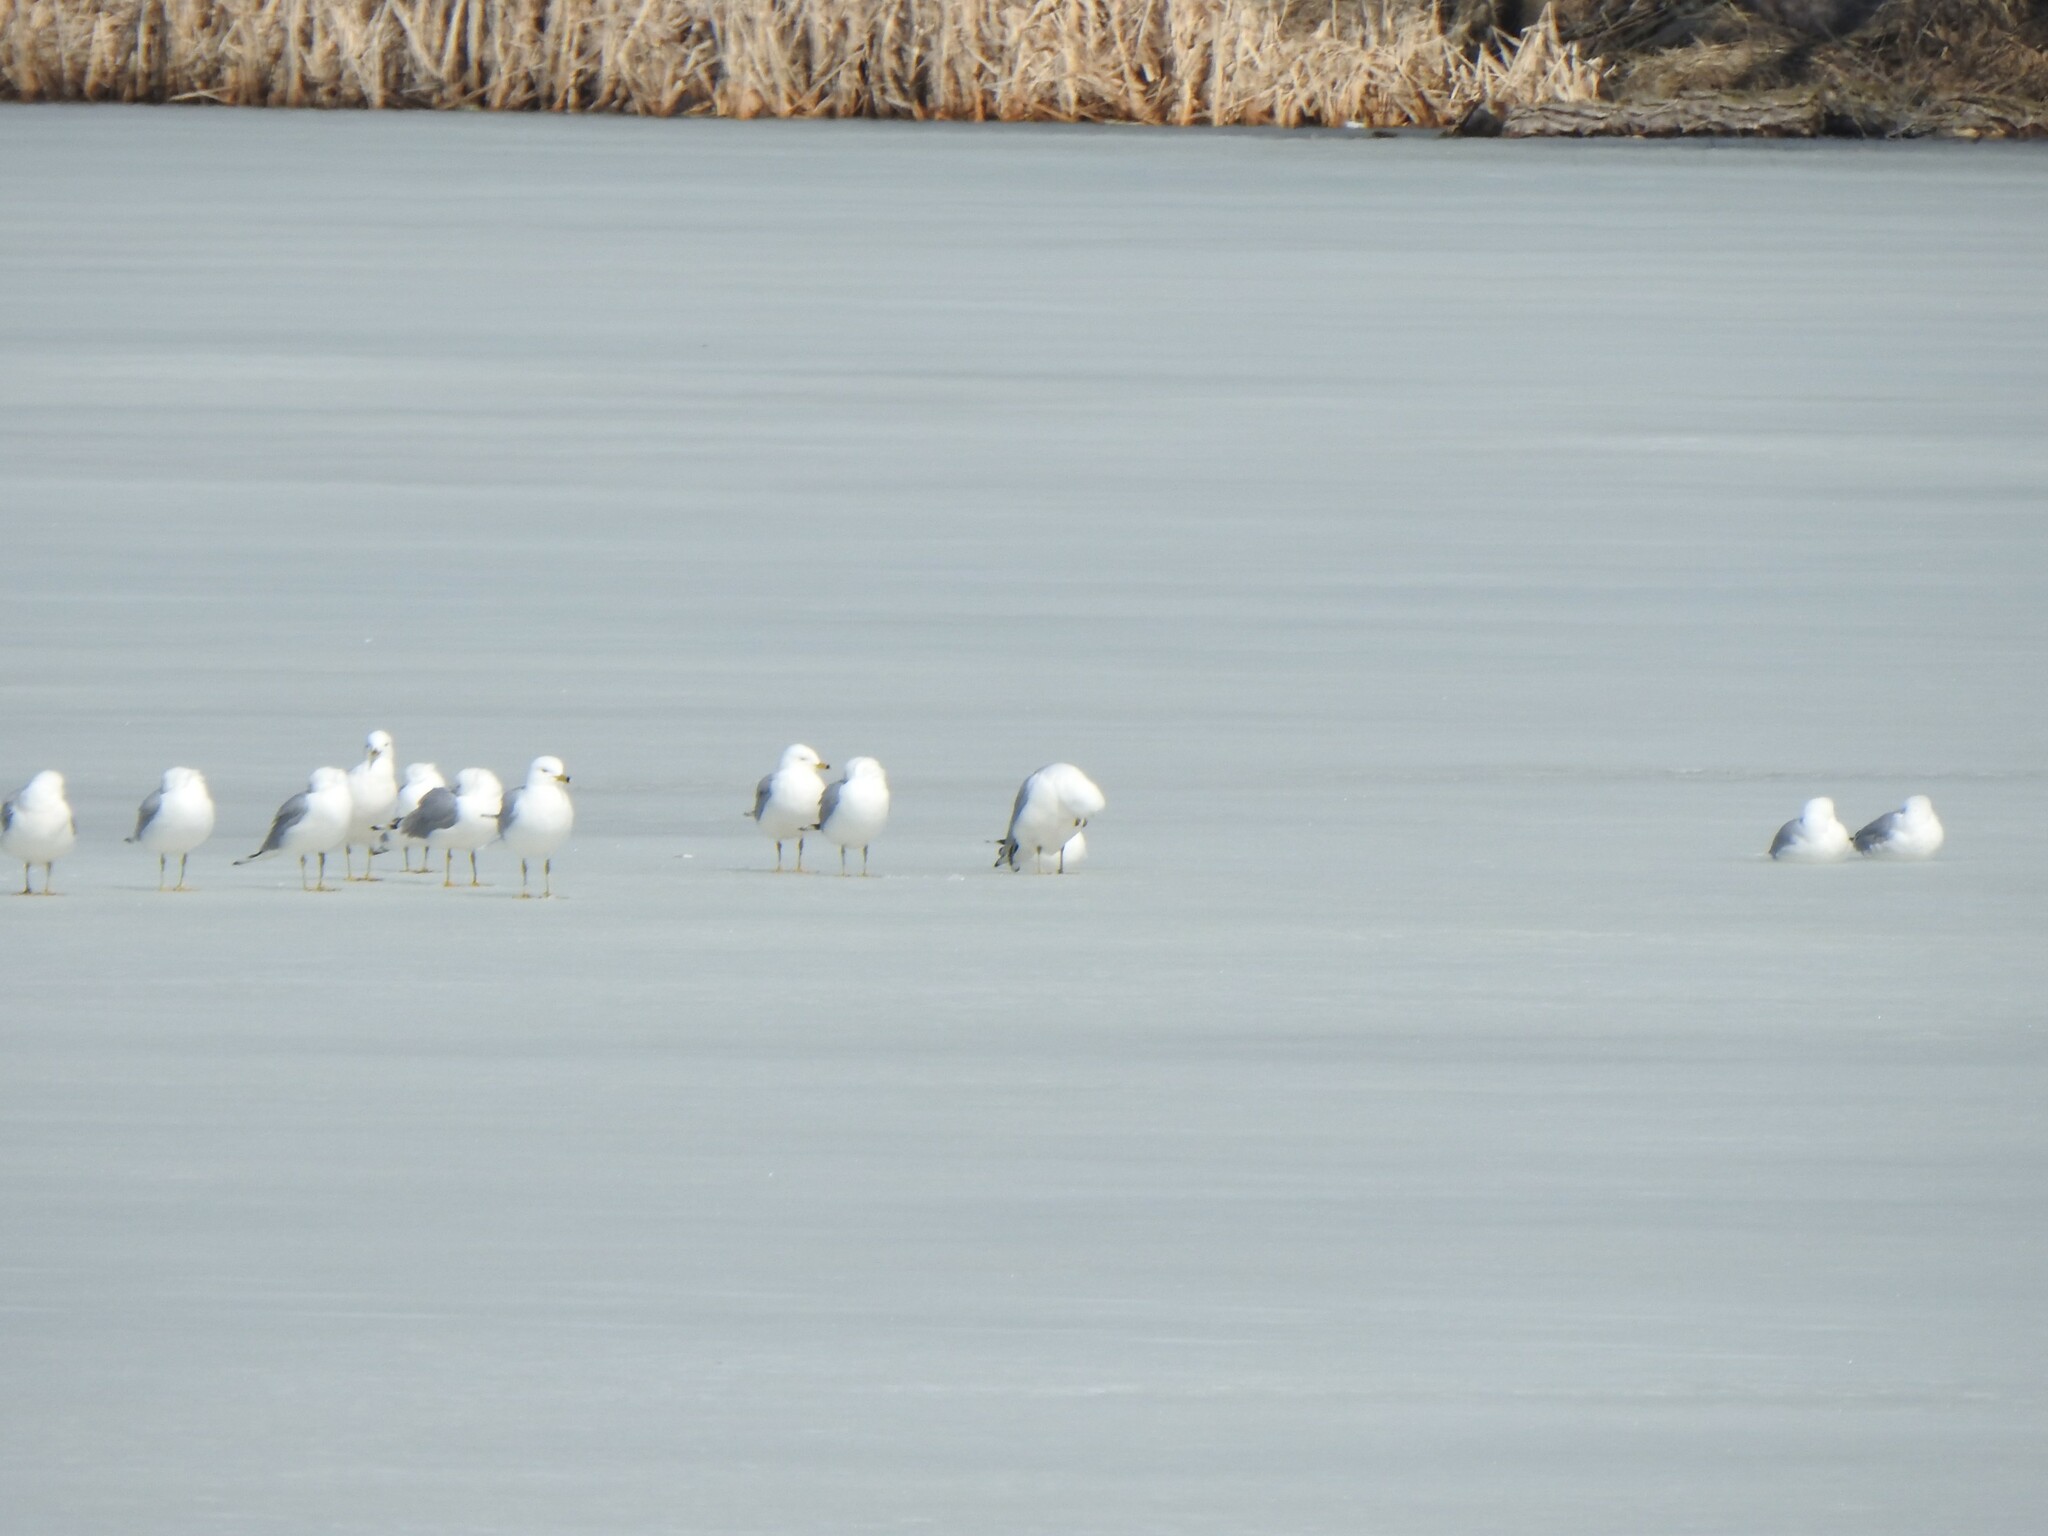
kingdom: Animalia
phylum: Chordata
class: Aves
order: Charadriiformes
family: Laridae
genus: Larus
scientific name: Larus delawarensis
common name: Ring-billed gull
